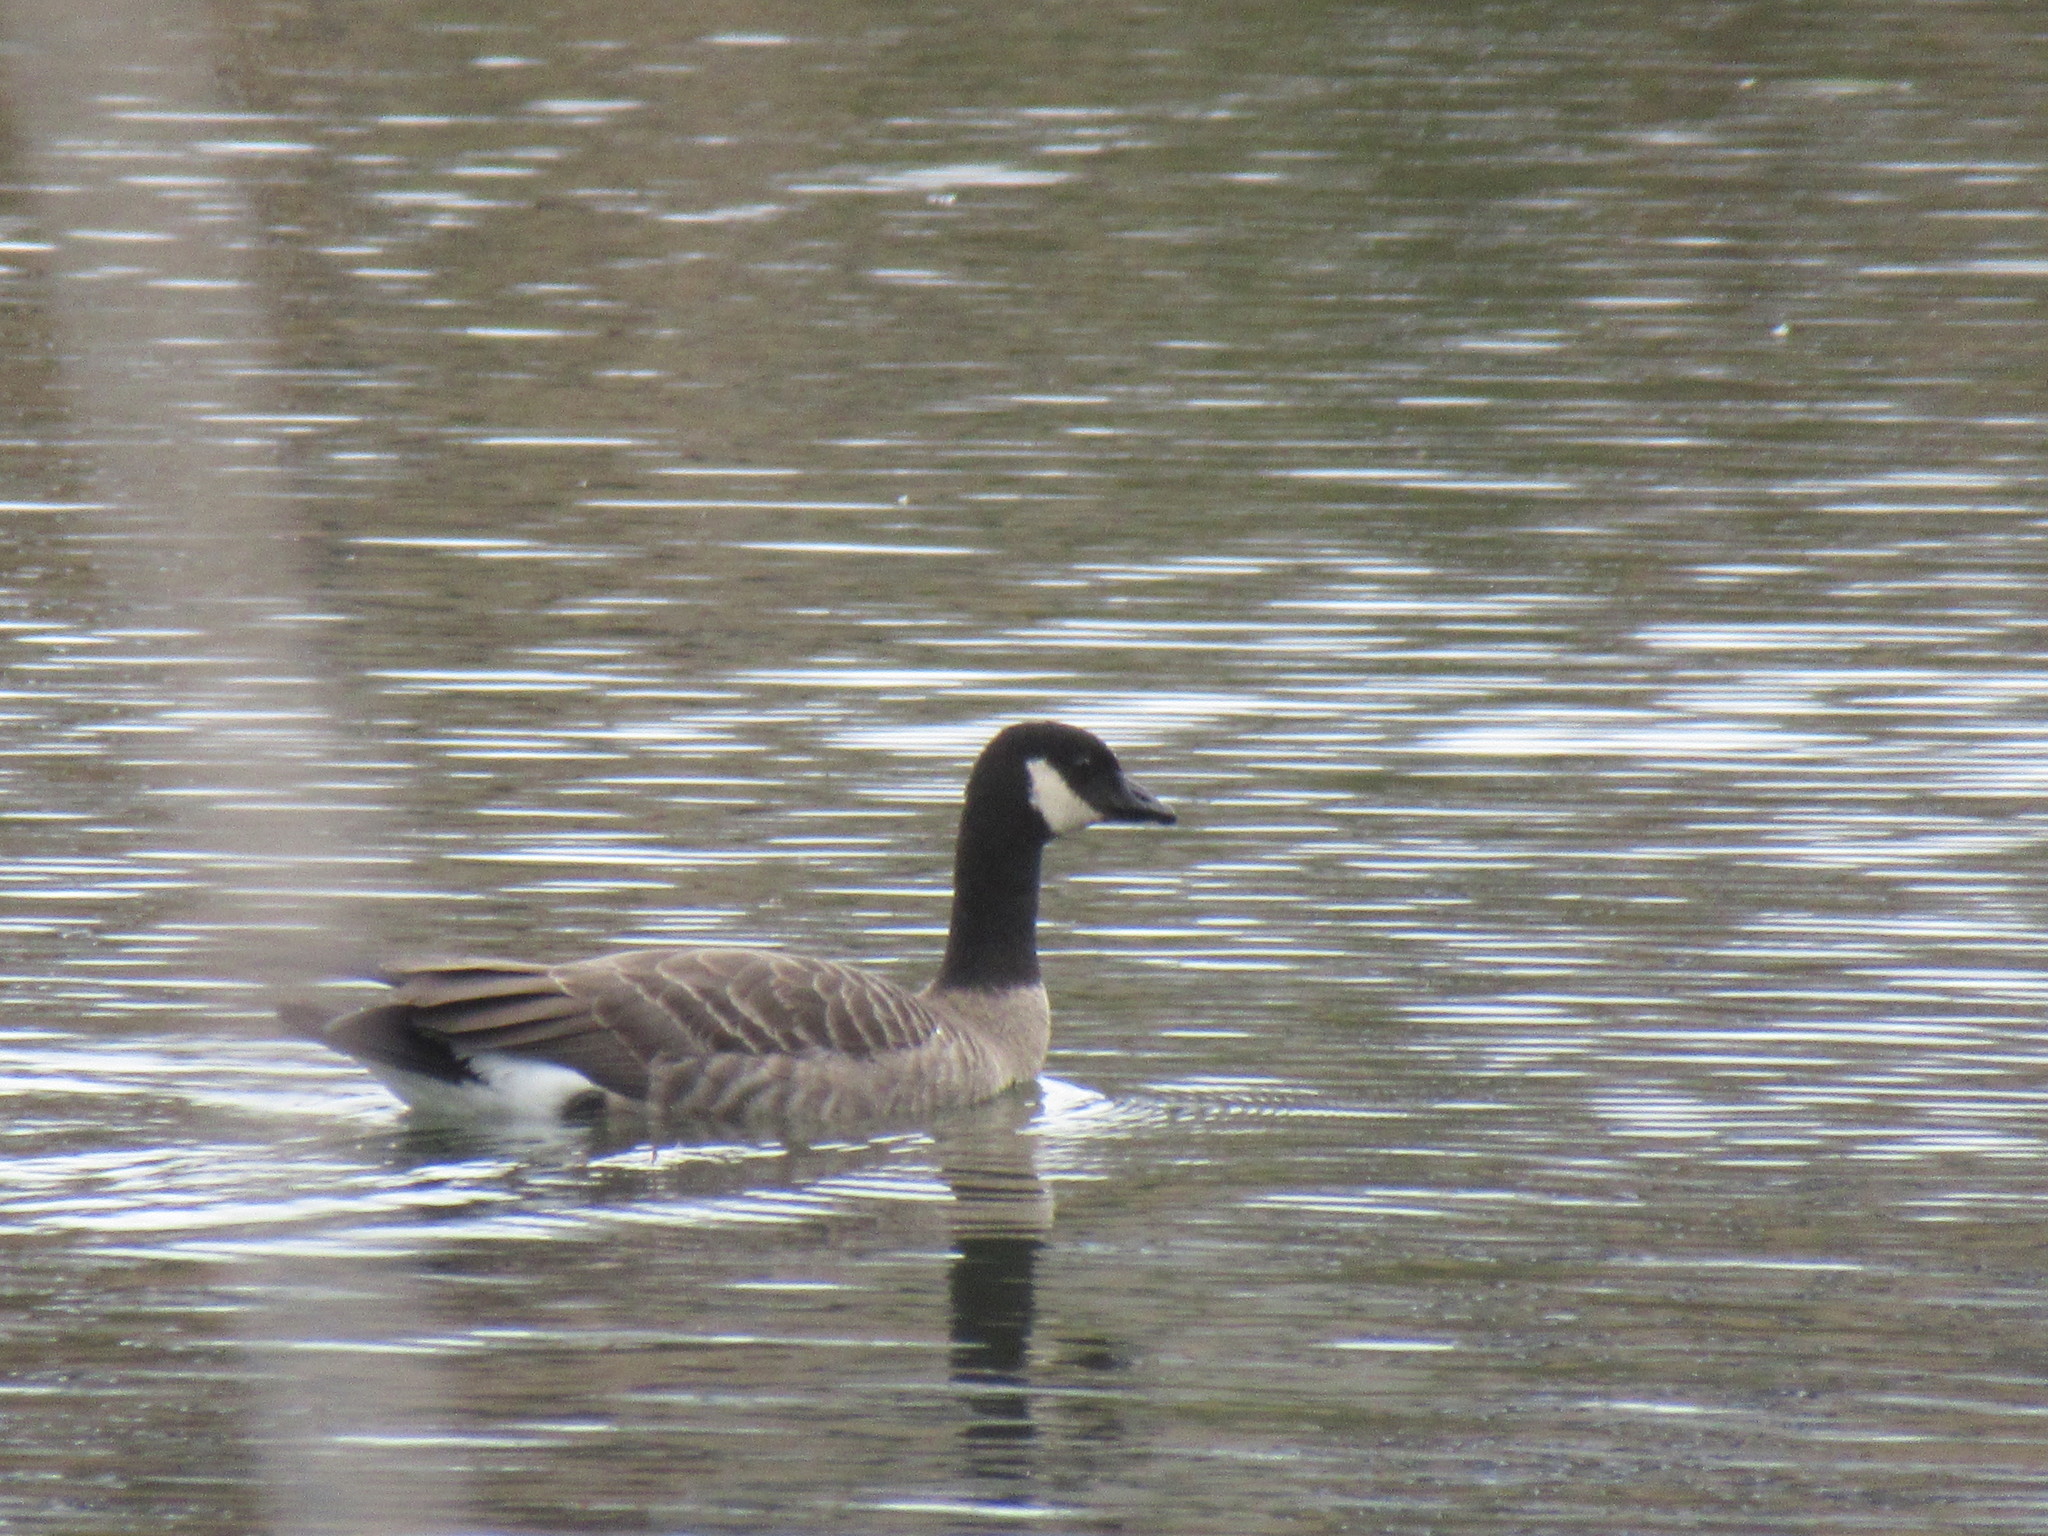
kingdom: Animalia
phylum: Chordata
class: Aves
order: Anseriformes
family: Anatidae
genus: Branta
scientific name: Branta hutchinsii
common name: Cackling goose
